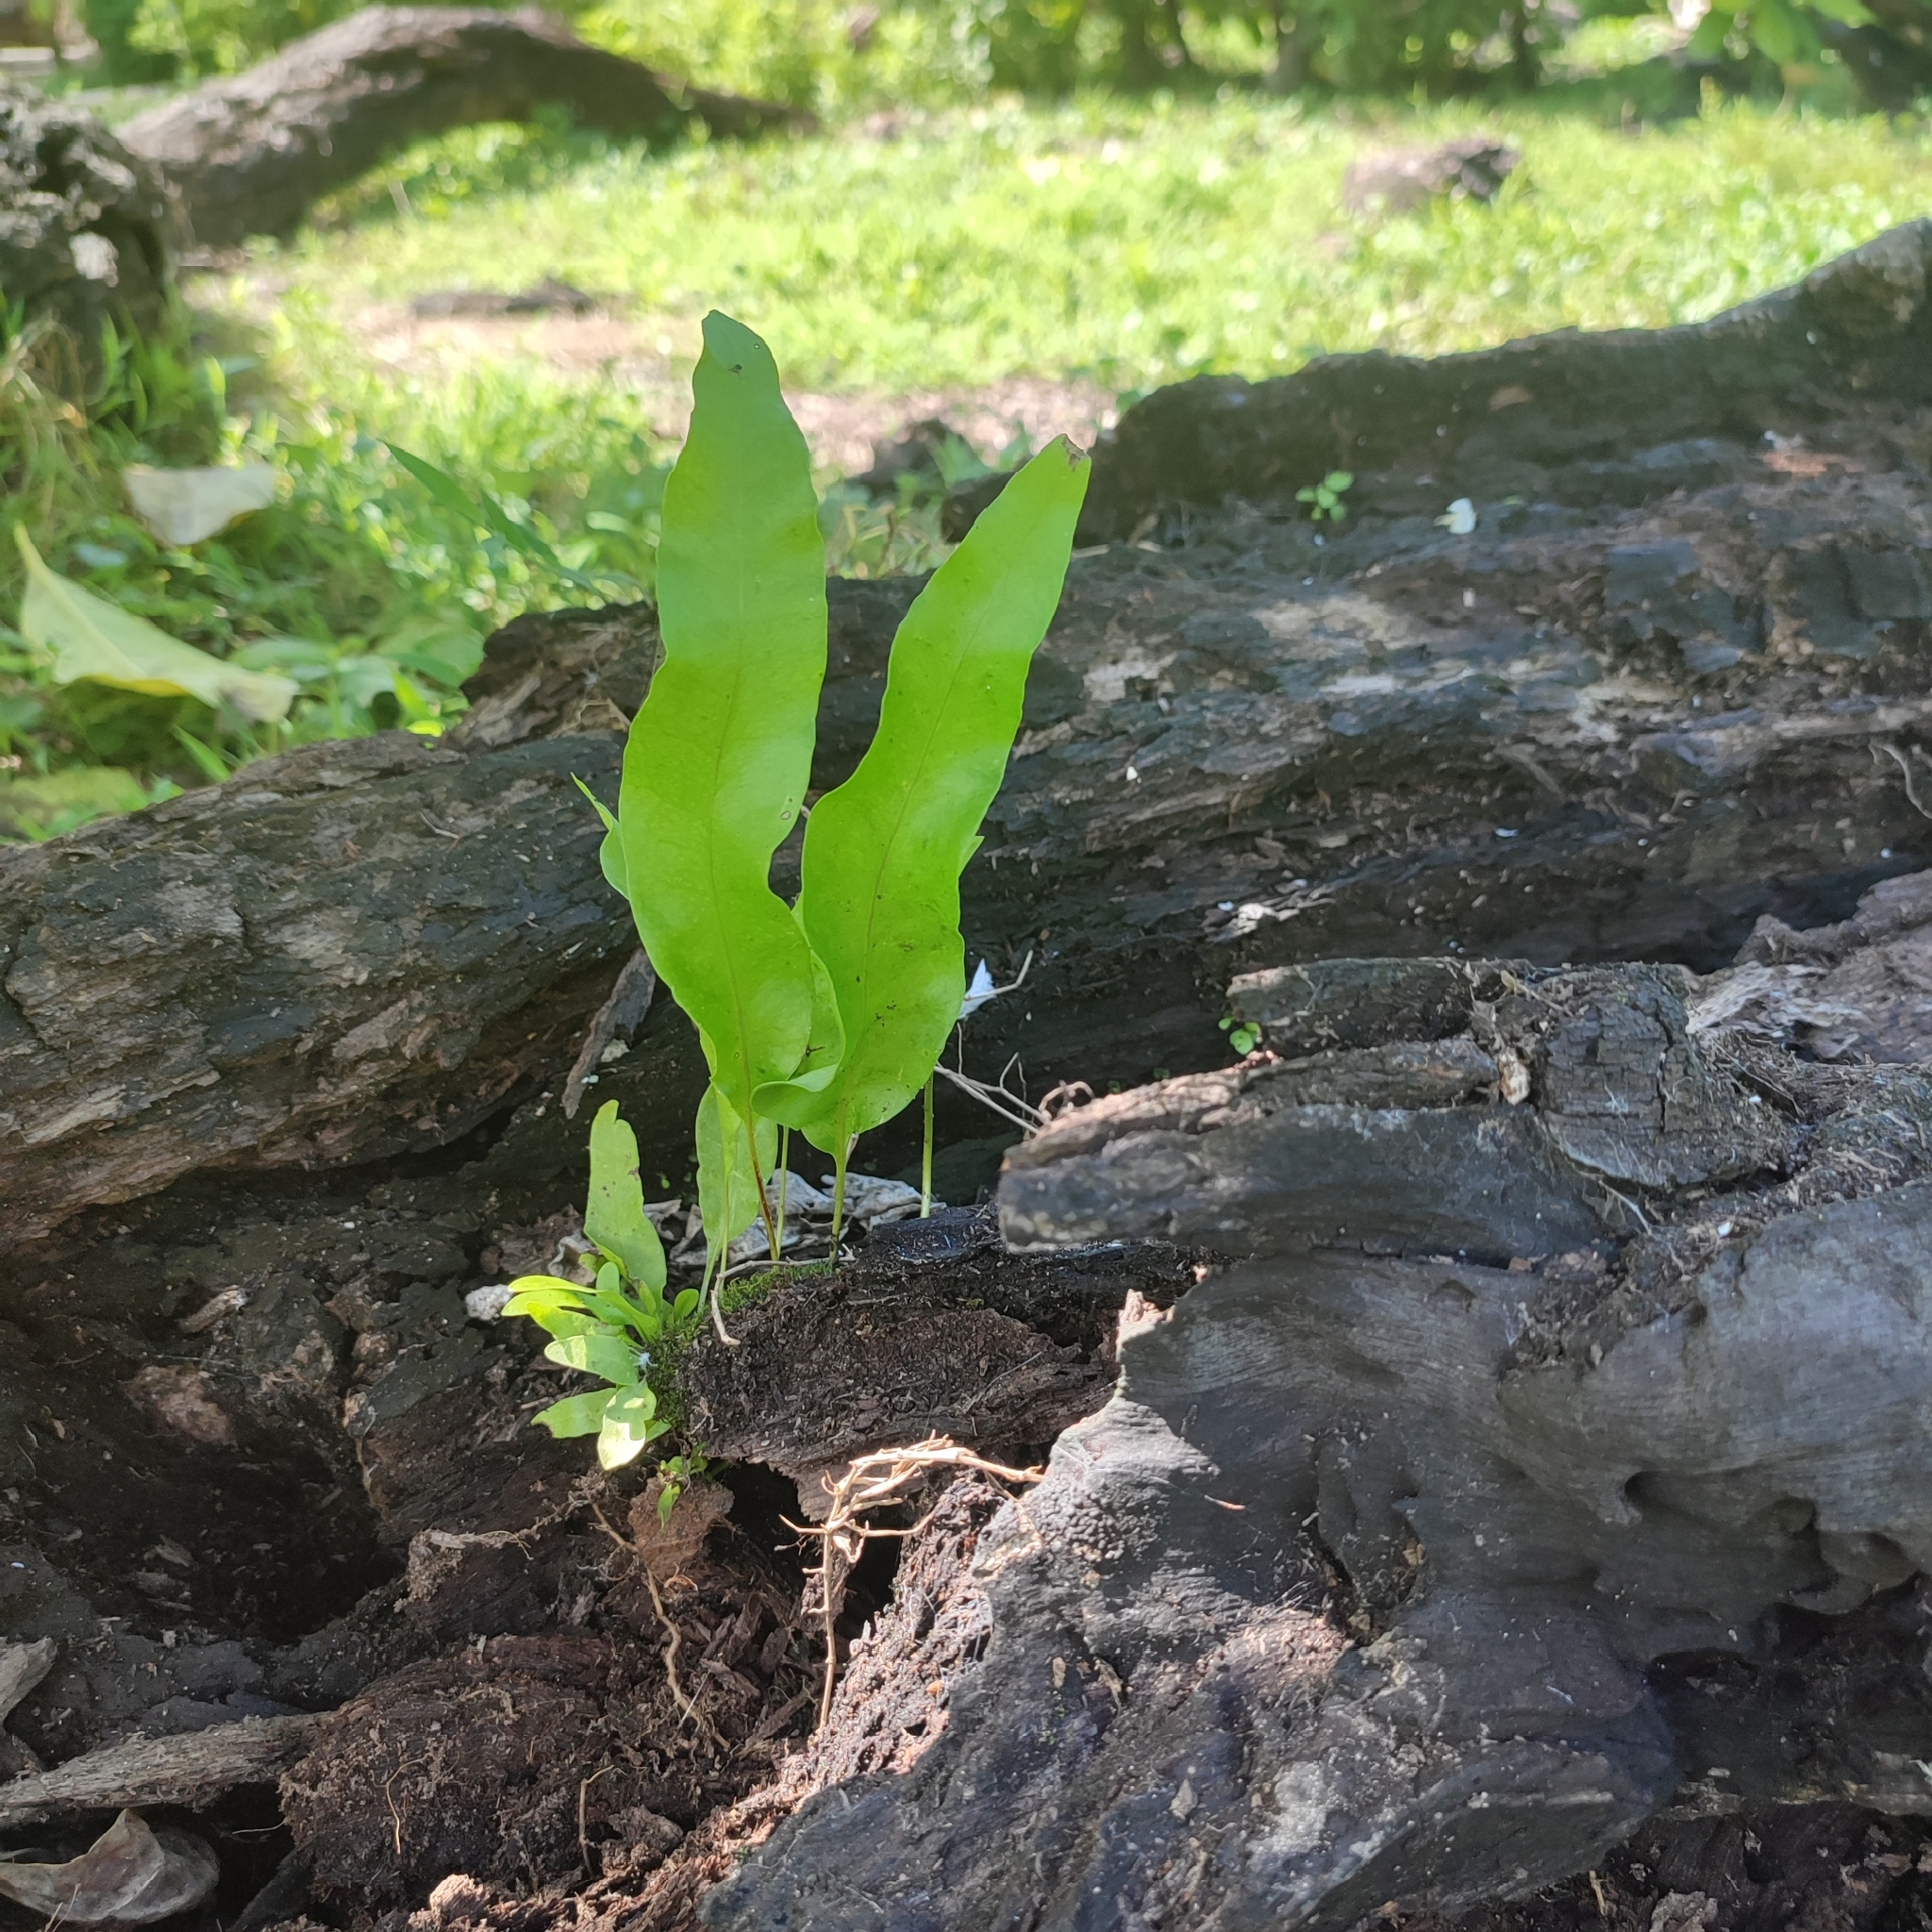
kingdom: Plantae
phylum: Tracheophyta
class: Polypodiopsida
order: Polypodiales
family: Polypodiaceae
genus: Microsorum
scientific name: Microsorum scolopendria
